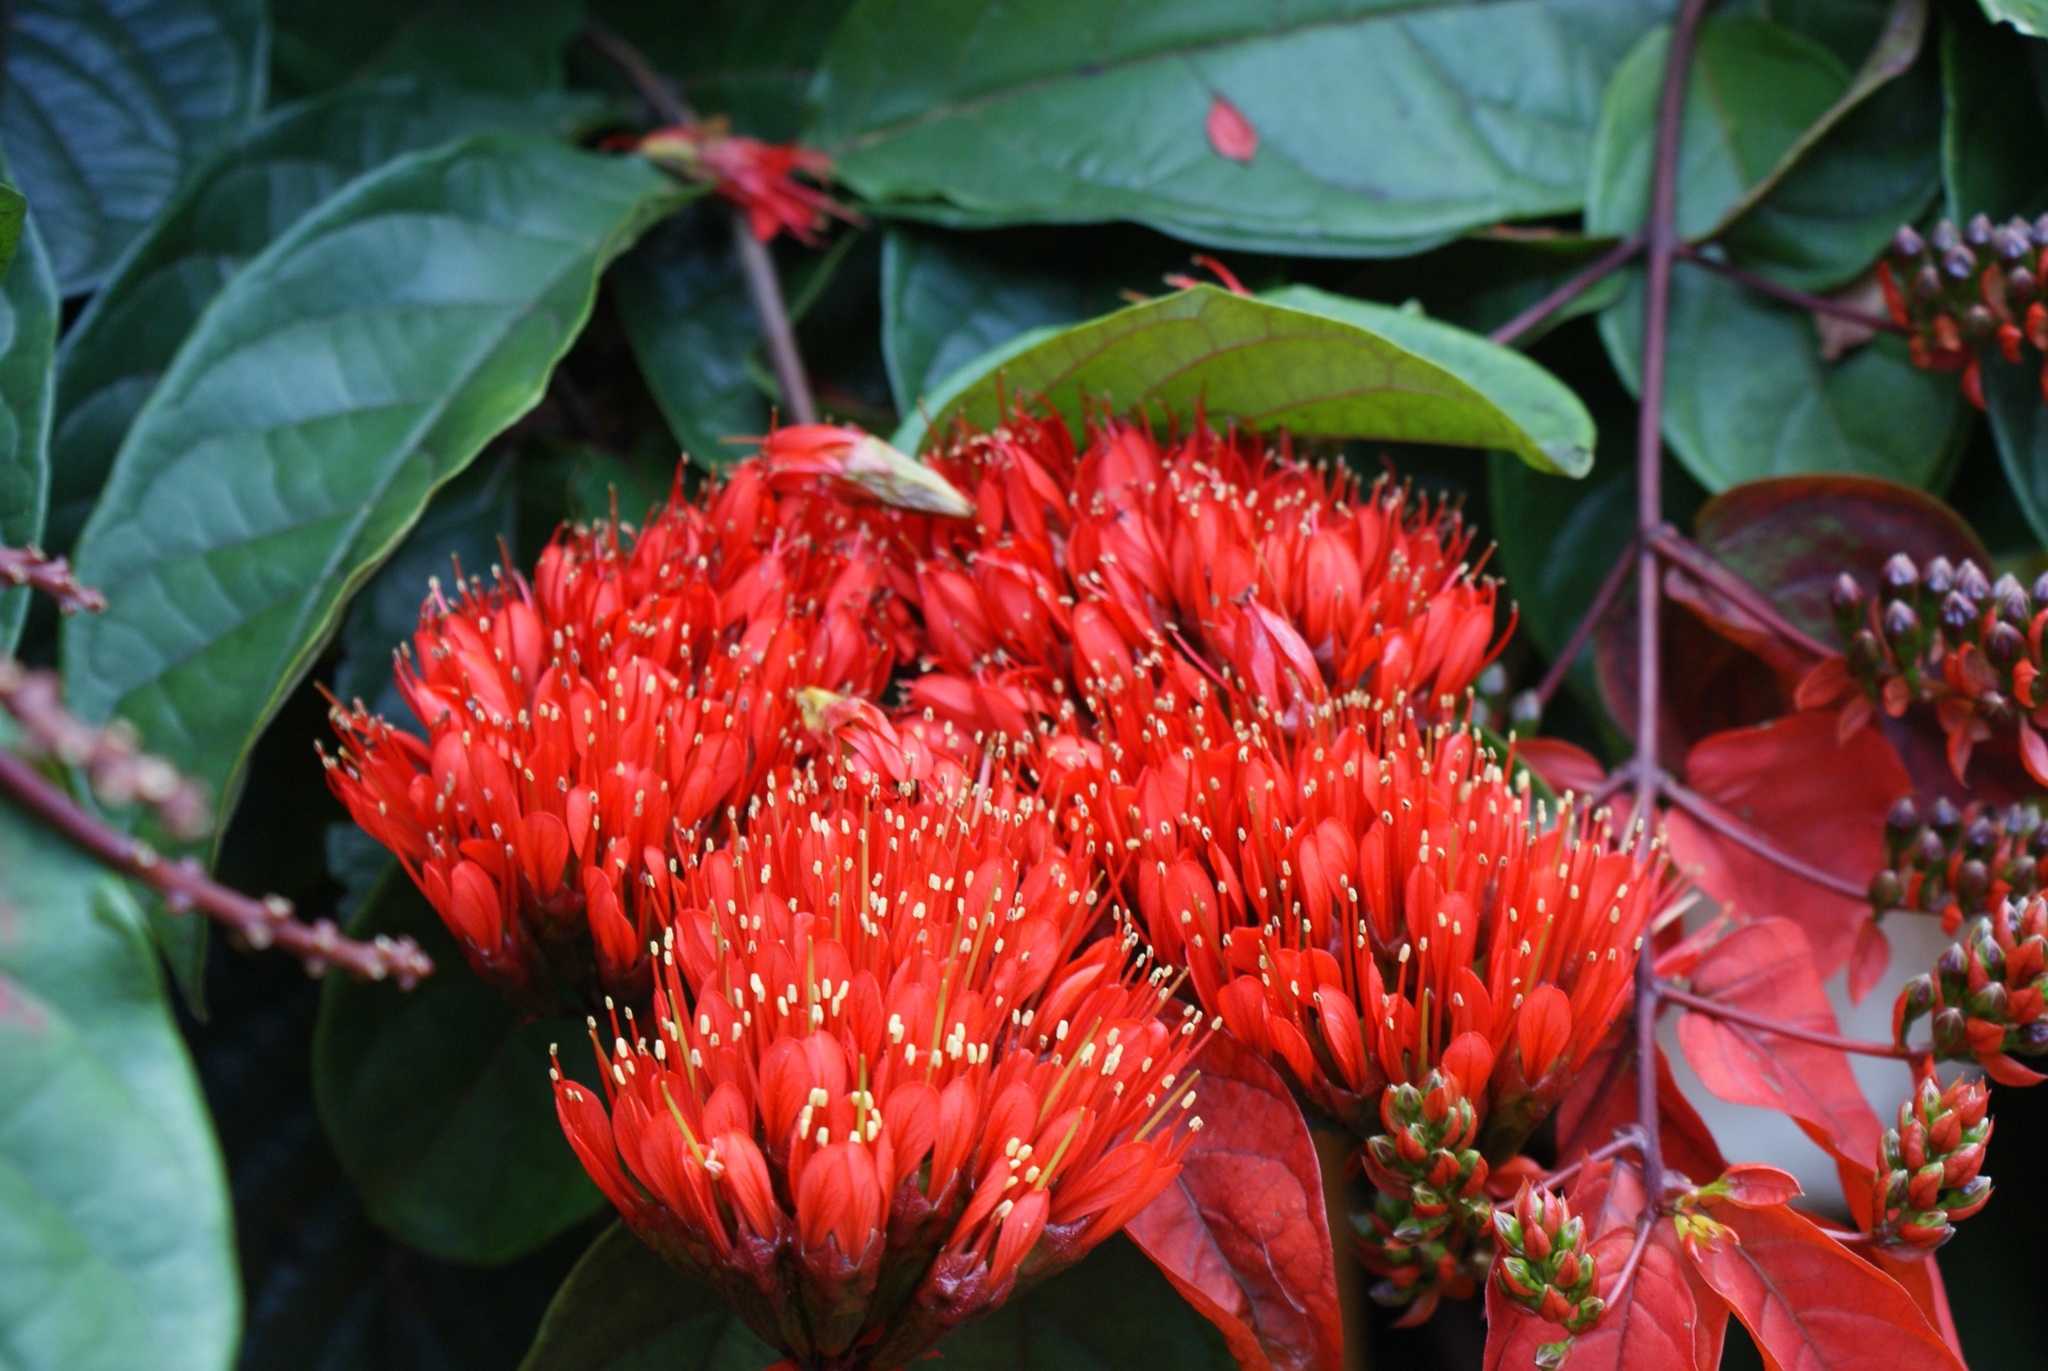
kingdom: Plantae
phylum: Tracheophyta
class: Magnoliopsida
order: Myrtales
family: Combretaceae
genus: Combretum
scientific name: Combretum grandiflorum
